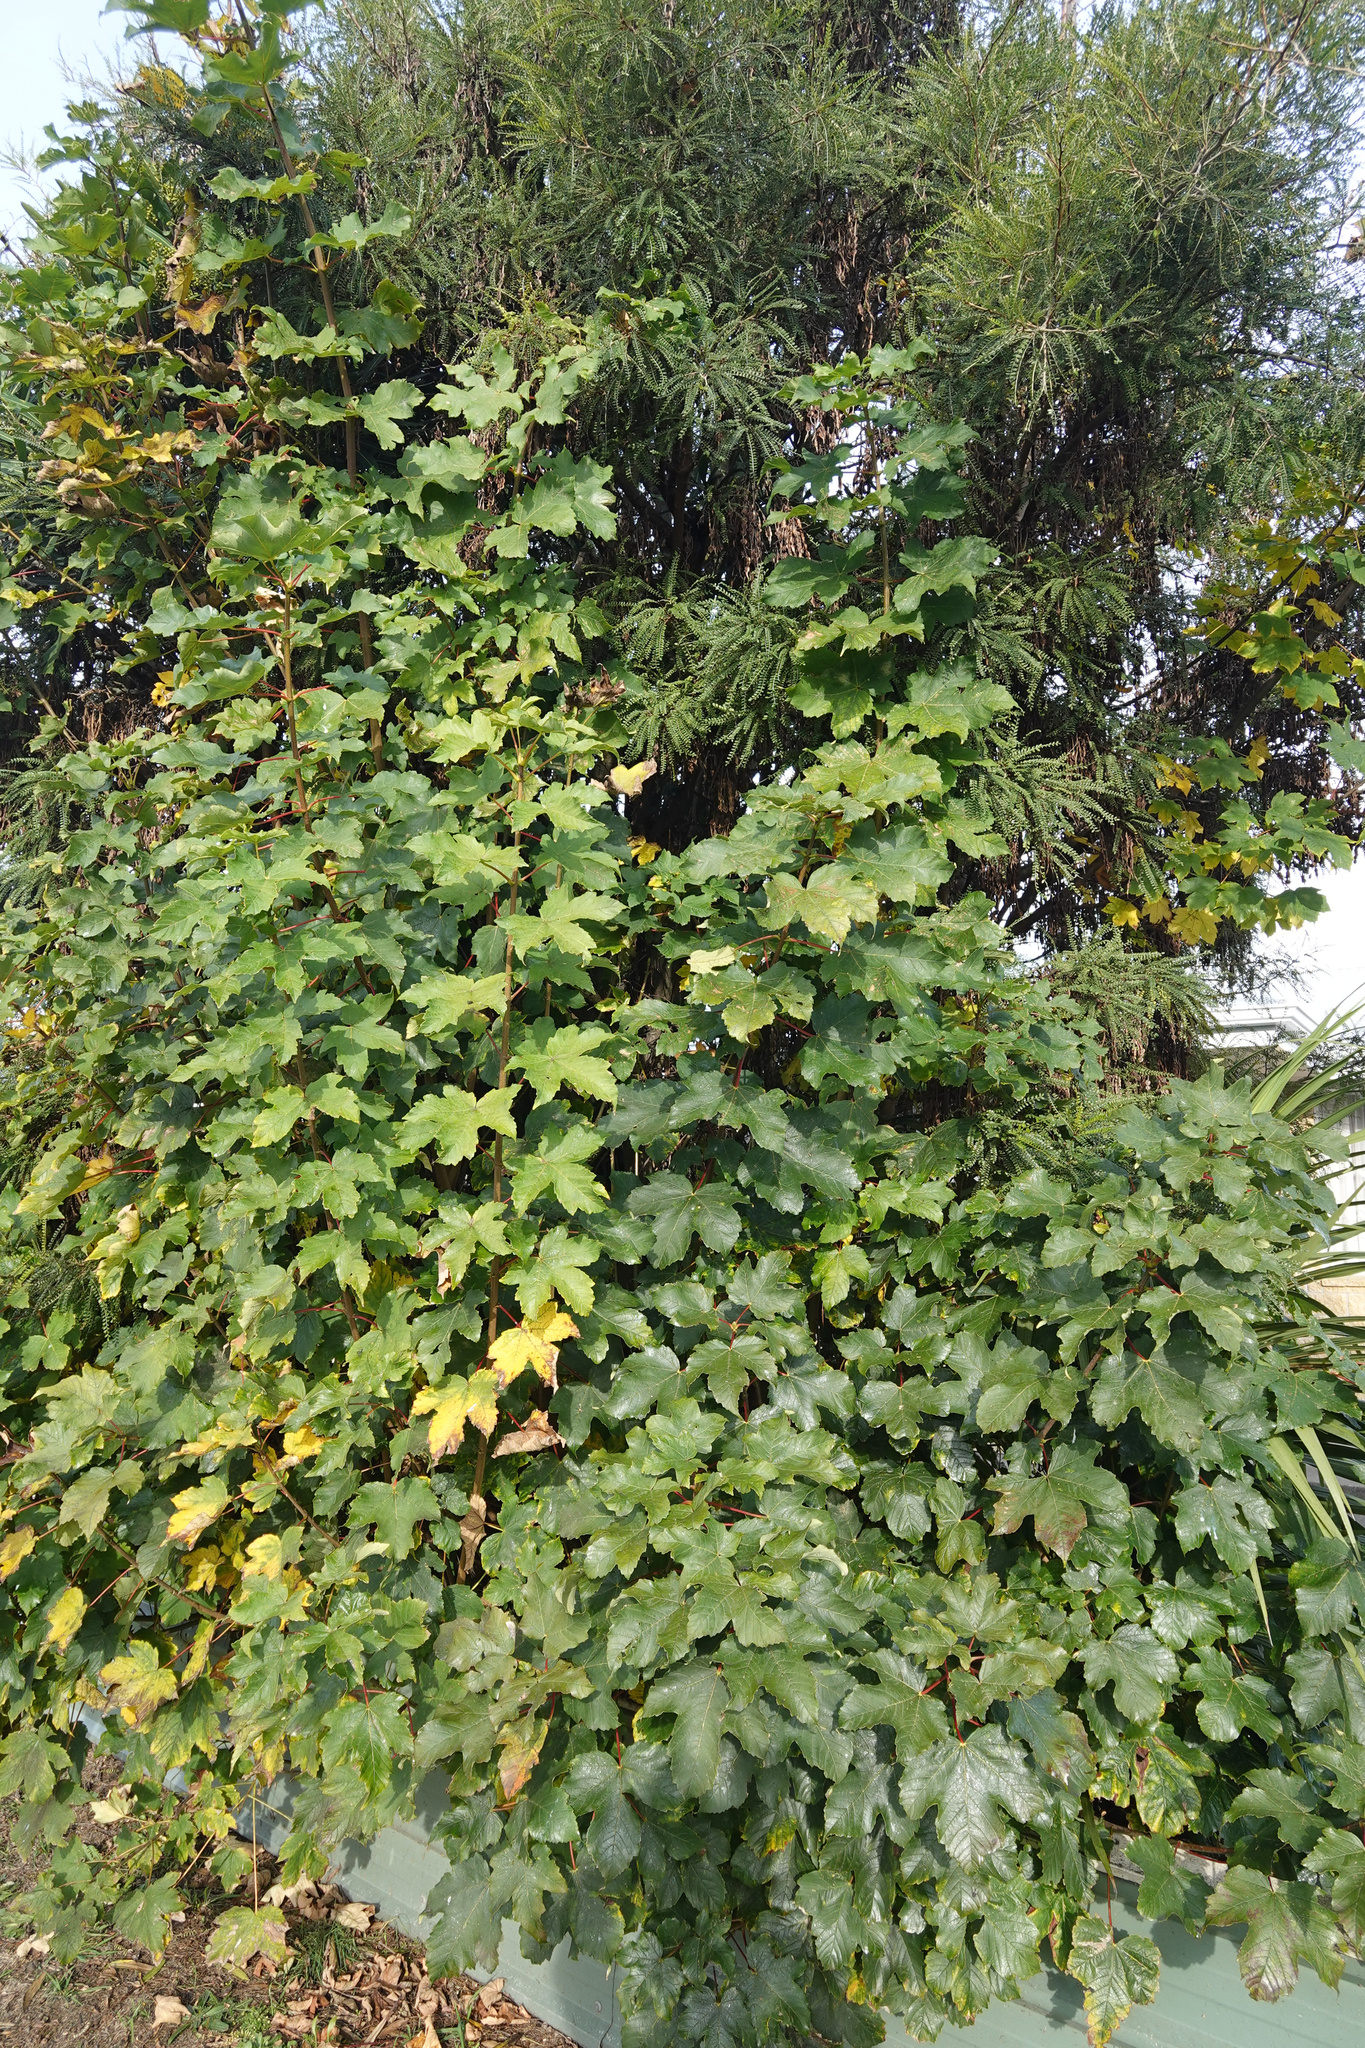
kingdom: Plantae
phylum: Tracheophyta
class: Magnoliopsida
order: Sapindales
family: Sapindaceae
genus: Acer
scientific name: Acer pseudoplatanus
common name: Sycamore
